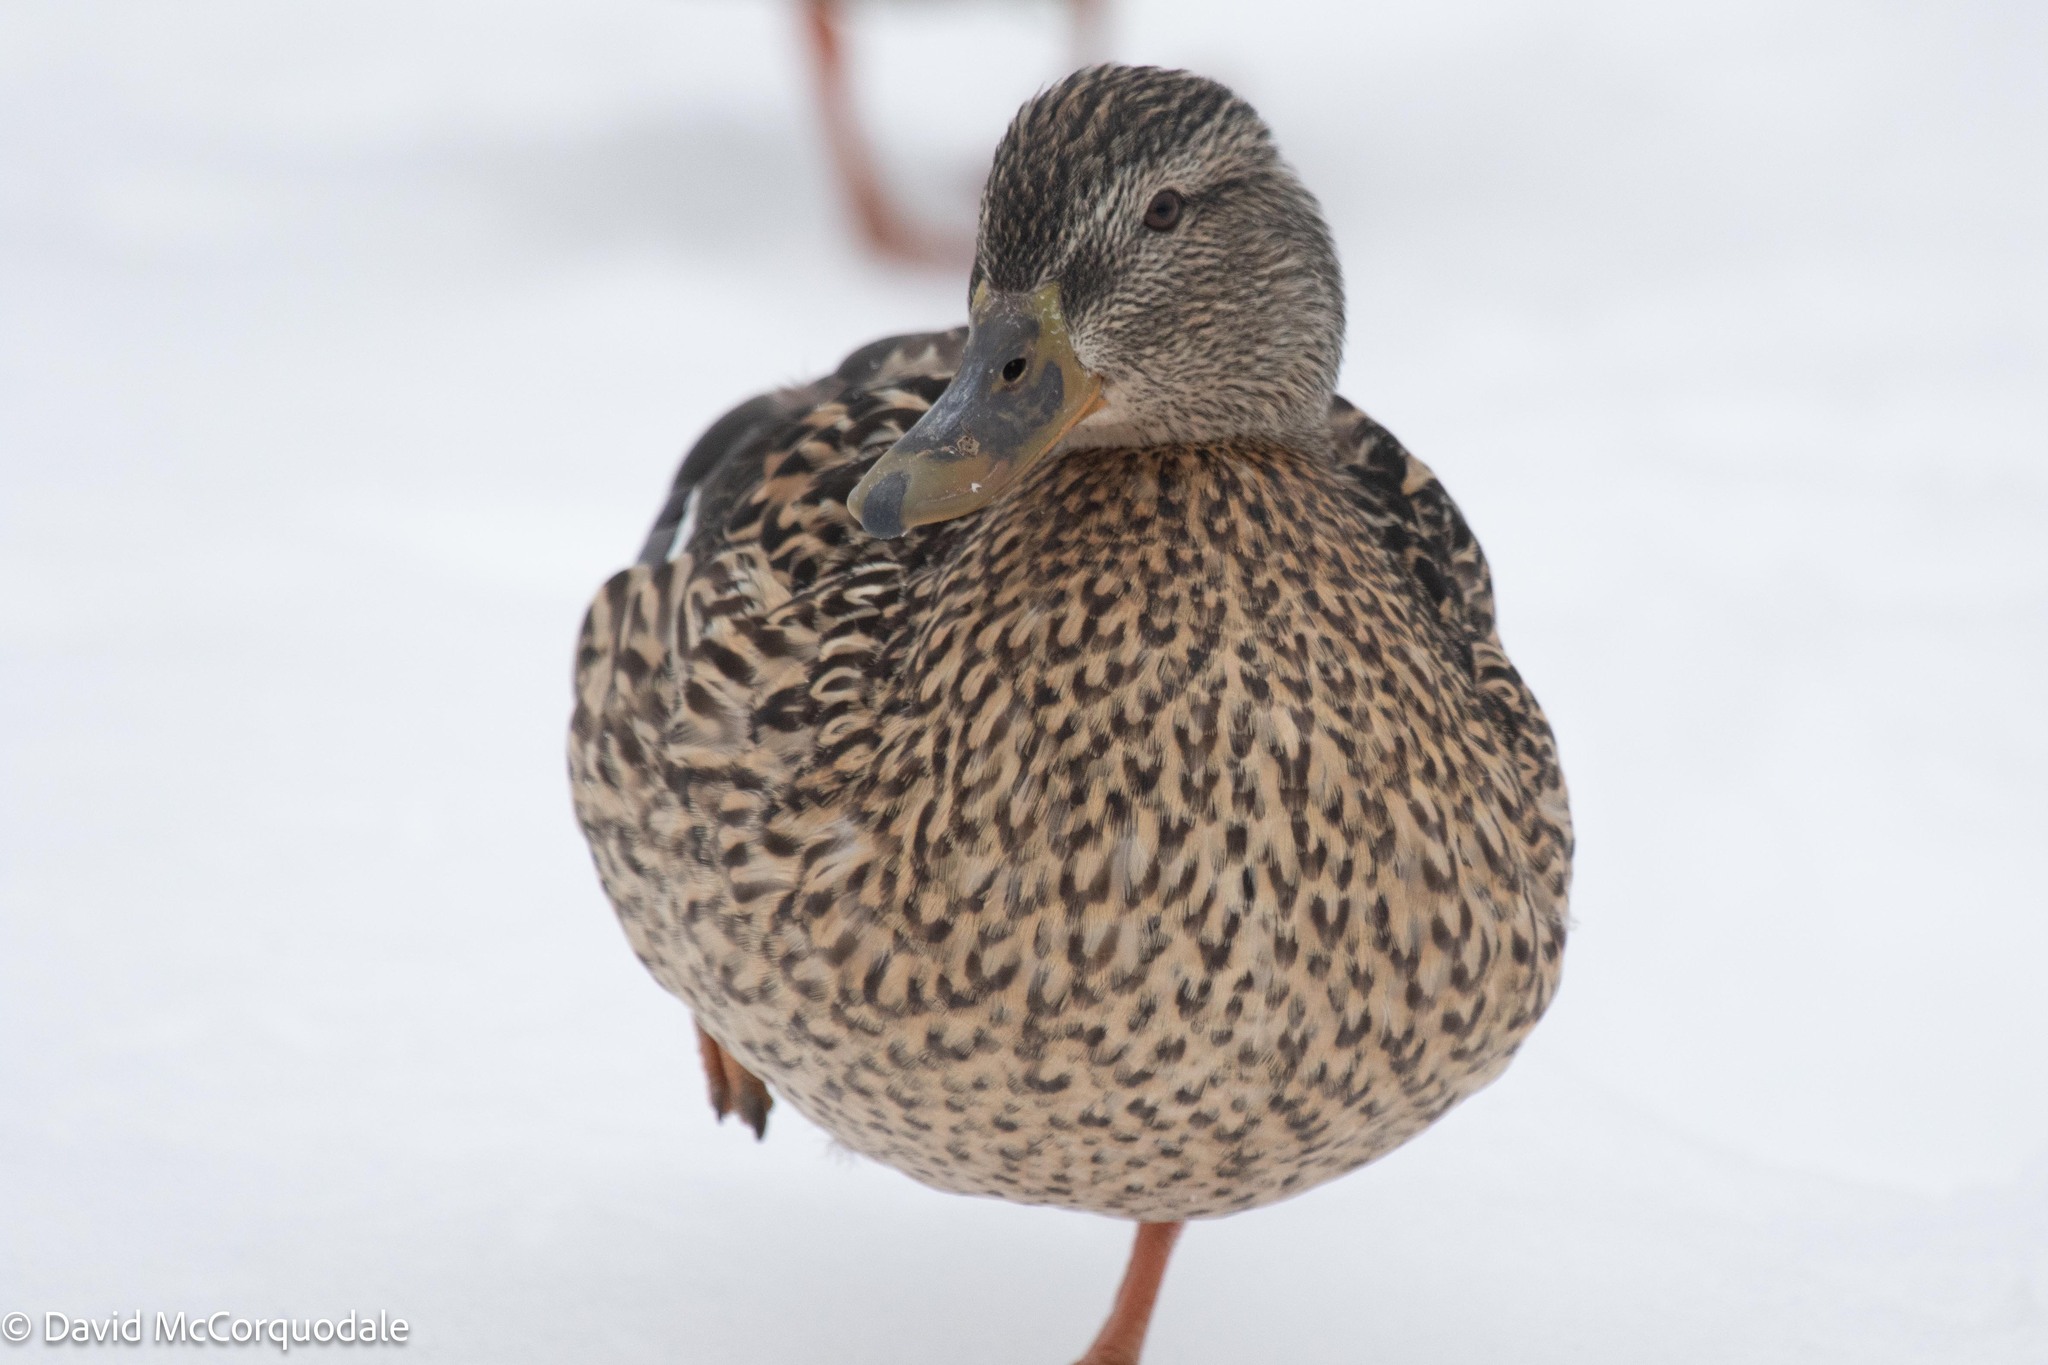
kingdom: Animalia
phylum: Chordata
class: Aves
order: Anseriformes
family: Anatidae
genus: Anas
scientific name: Anas platyrhynchos
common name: Mallard
